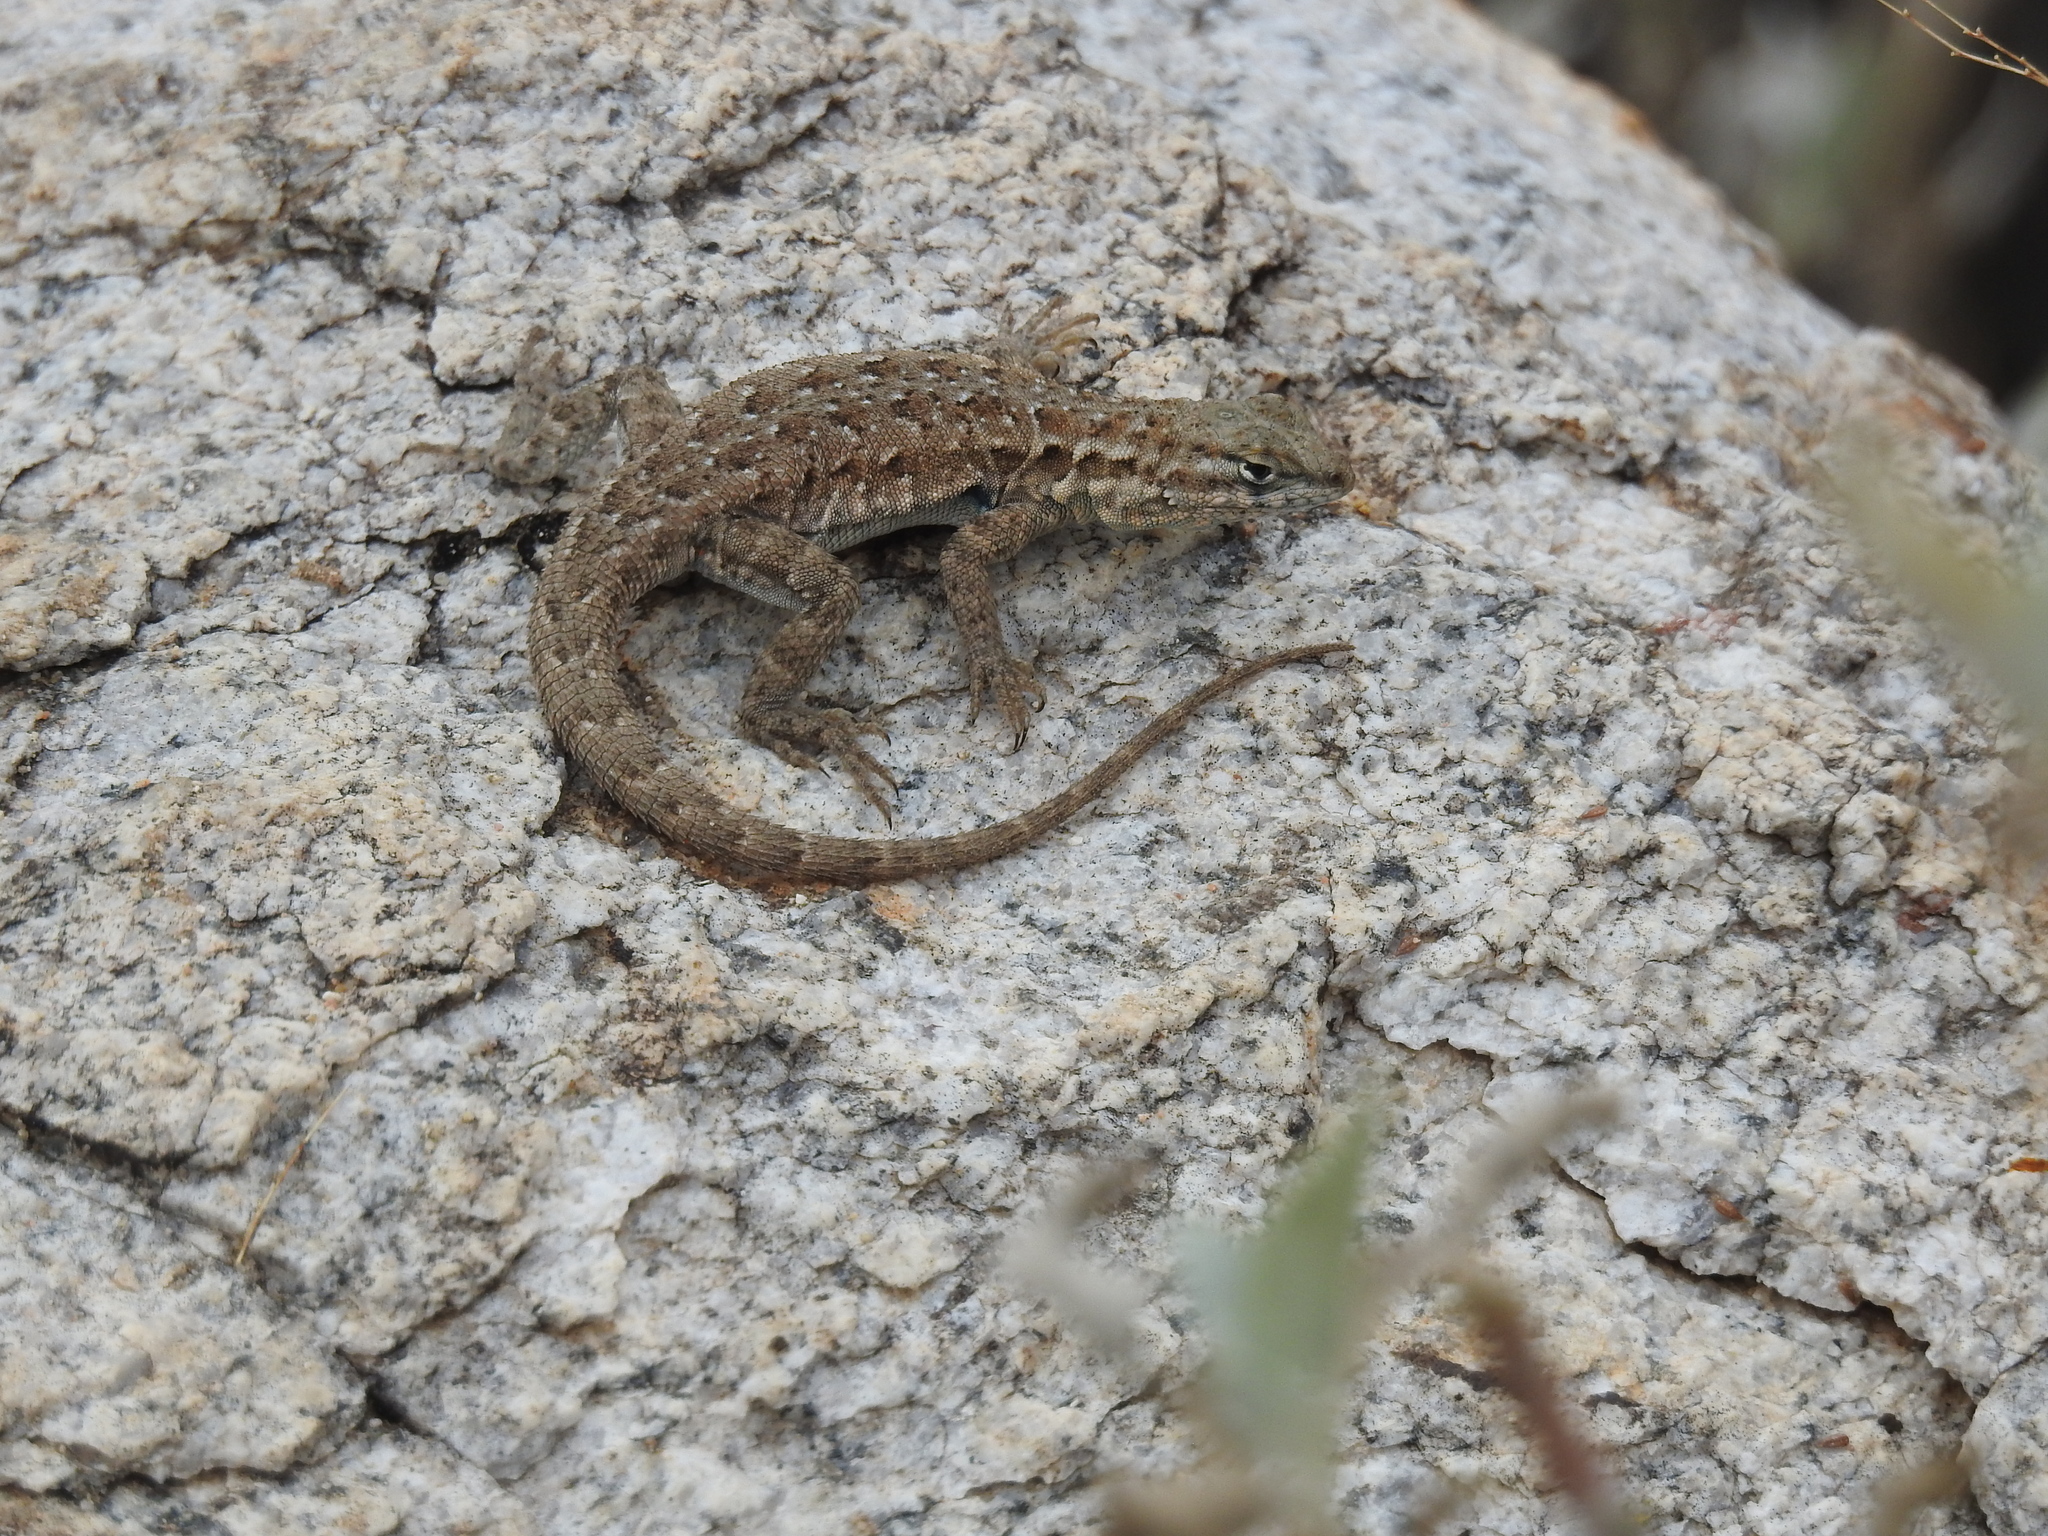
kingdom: Animalia
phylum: Chordata
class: Squamata
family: Phrynosomatidae
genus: Uta
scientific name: Uta stansburiana
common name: Side-blotched lizard
